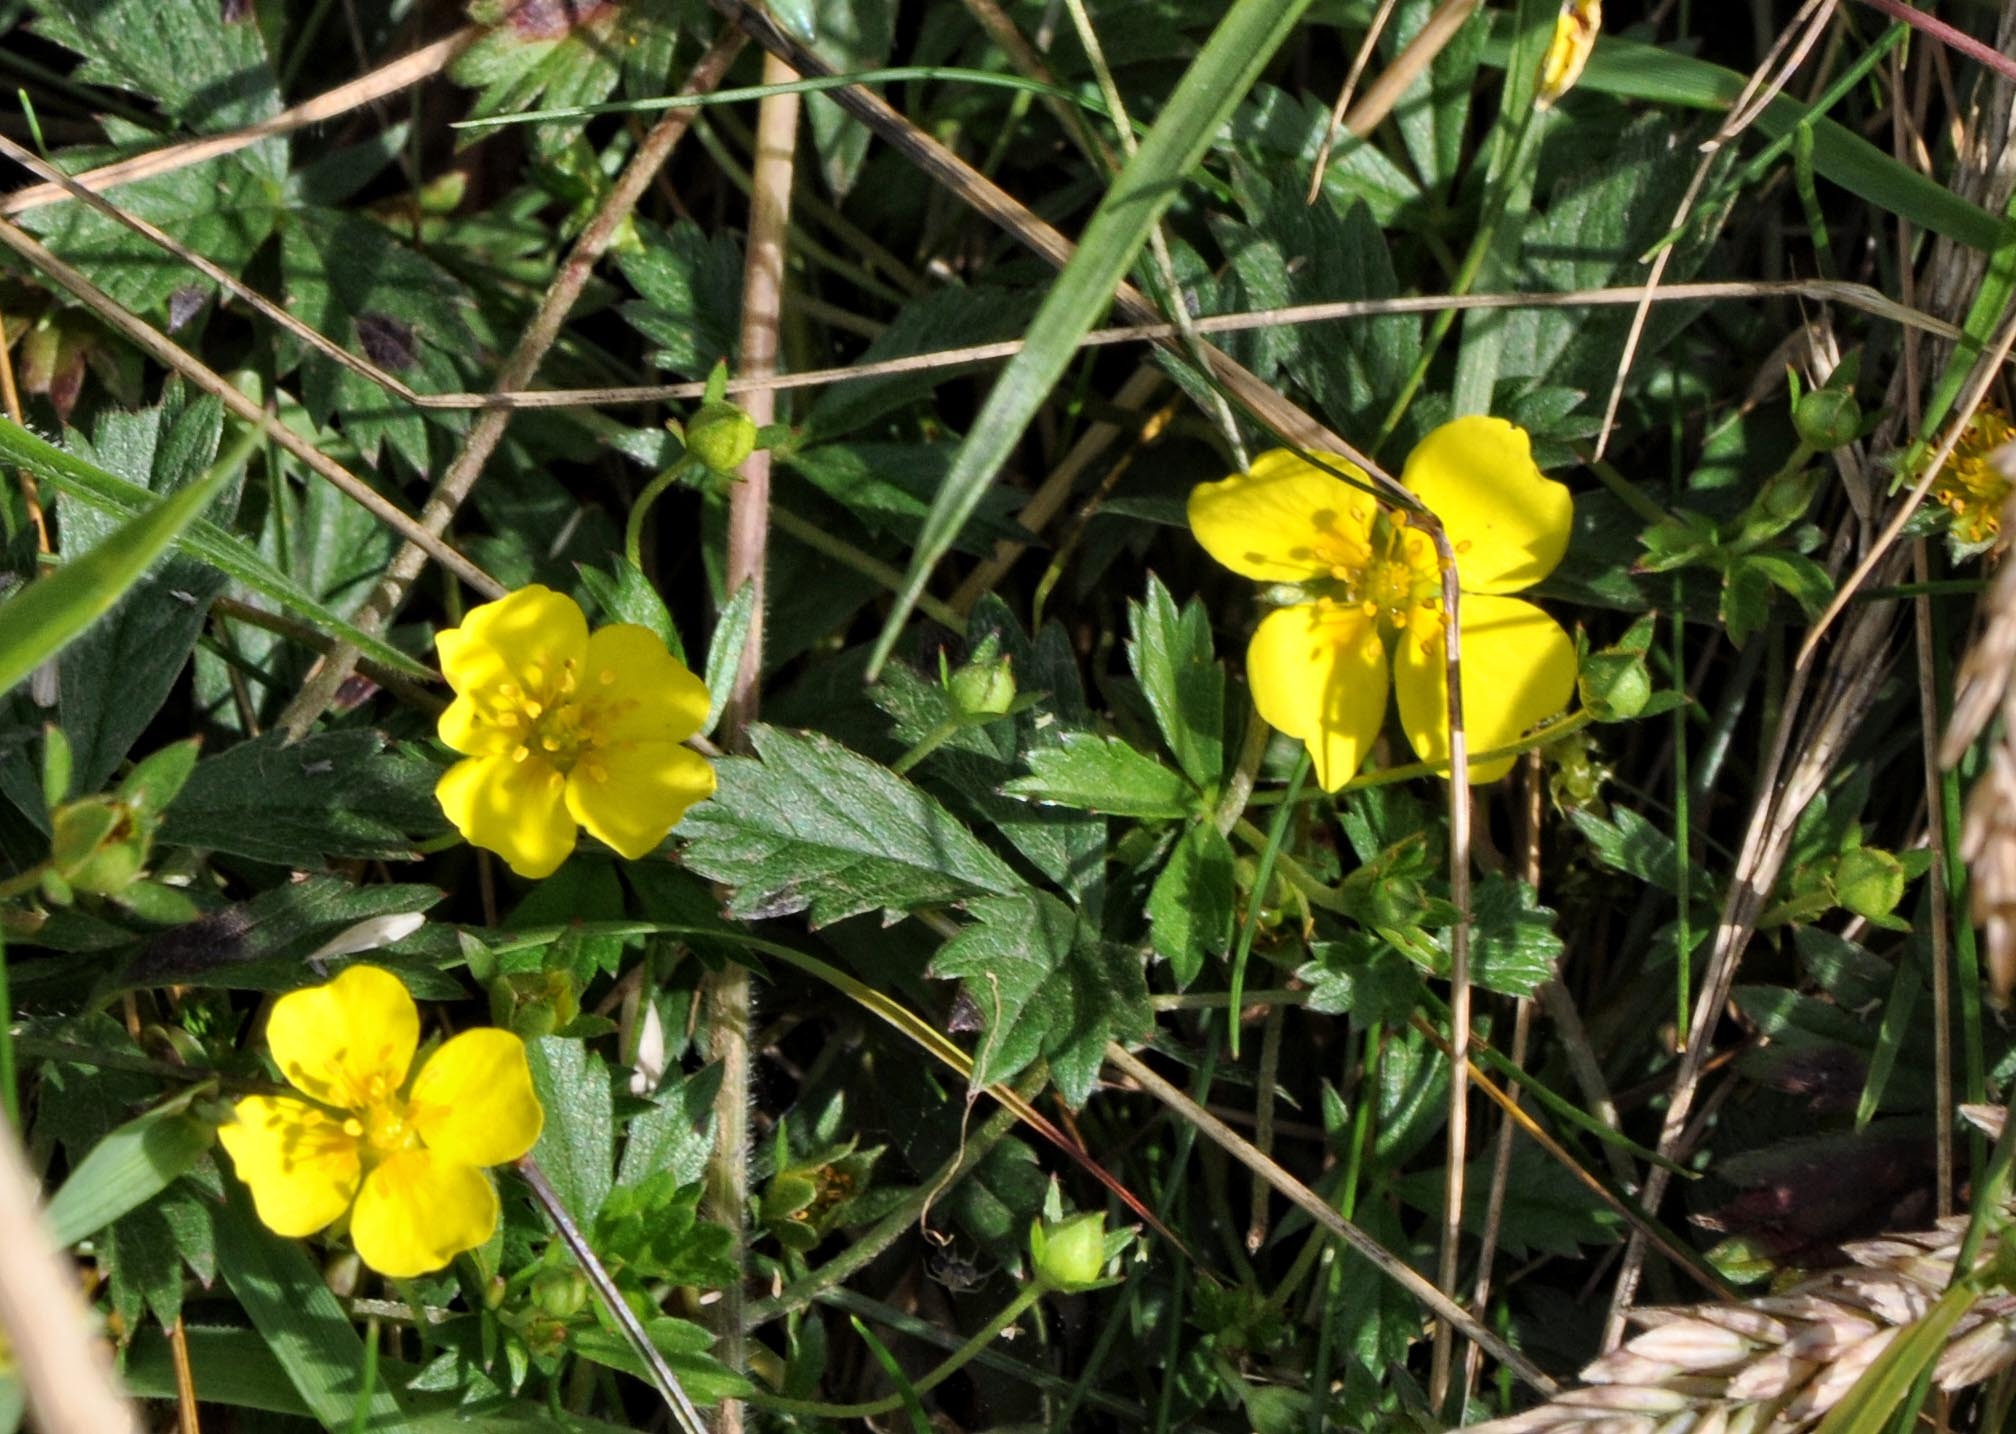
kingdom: Plantae
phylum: Tracheophyta
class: Magnoliopsida
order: Rosales
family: Rosaceae
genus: Potentilla
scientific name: Potentilla erecta
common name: Tormentil
